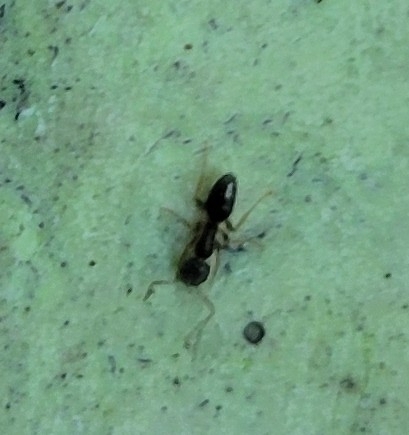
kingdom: Animalia
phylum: Arthropoda
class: Insecta
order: Hymenoptera
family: Formicidae
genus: Tapinoma
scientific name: Tapinoma sessile
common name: Odorous house ant
